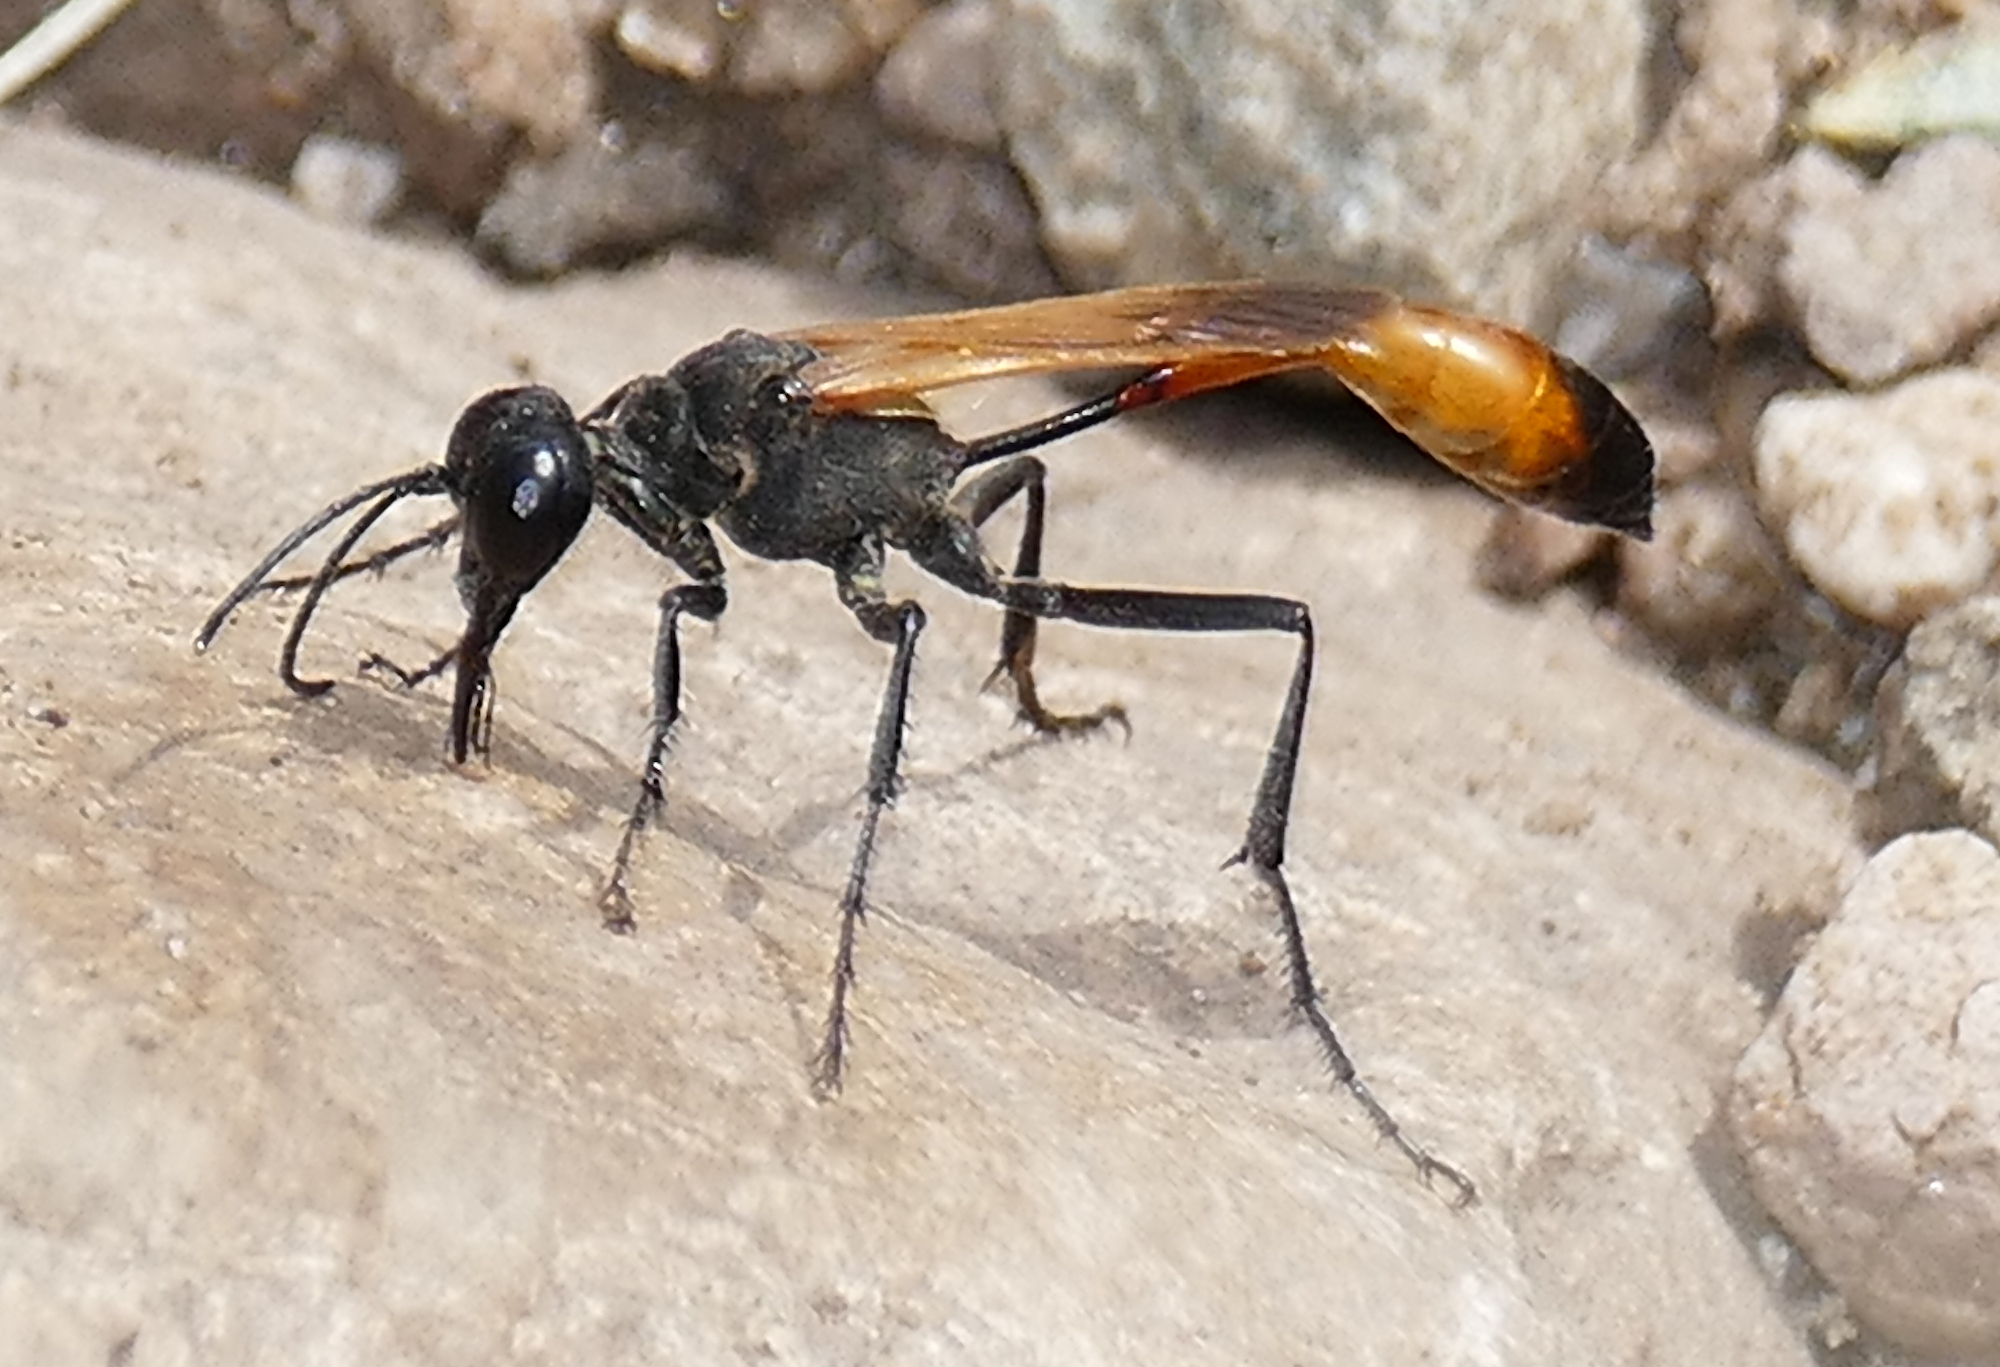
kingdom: Animalia
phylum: Arthropoda
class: Insecta
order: Hymenoptera
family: Sphecidae
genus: Ammophila
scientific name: Ammophila placida
